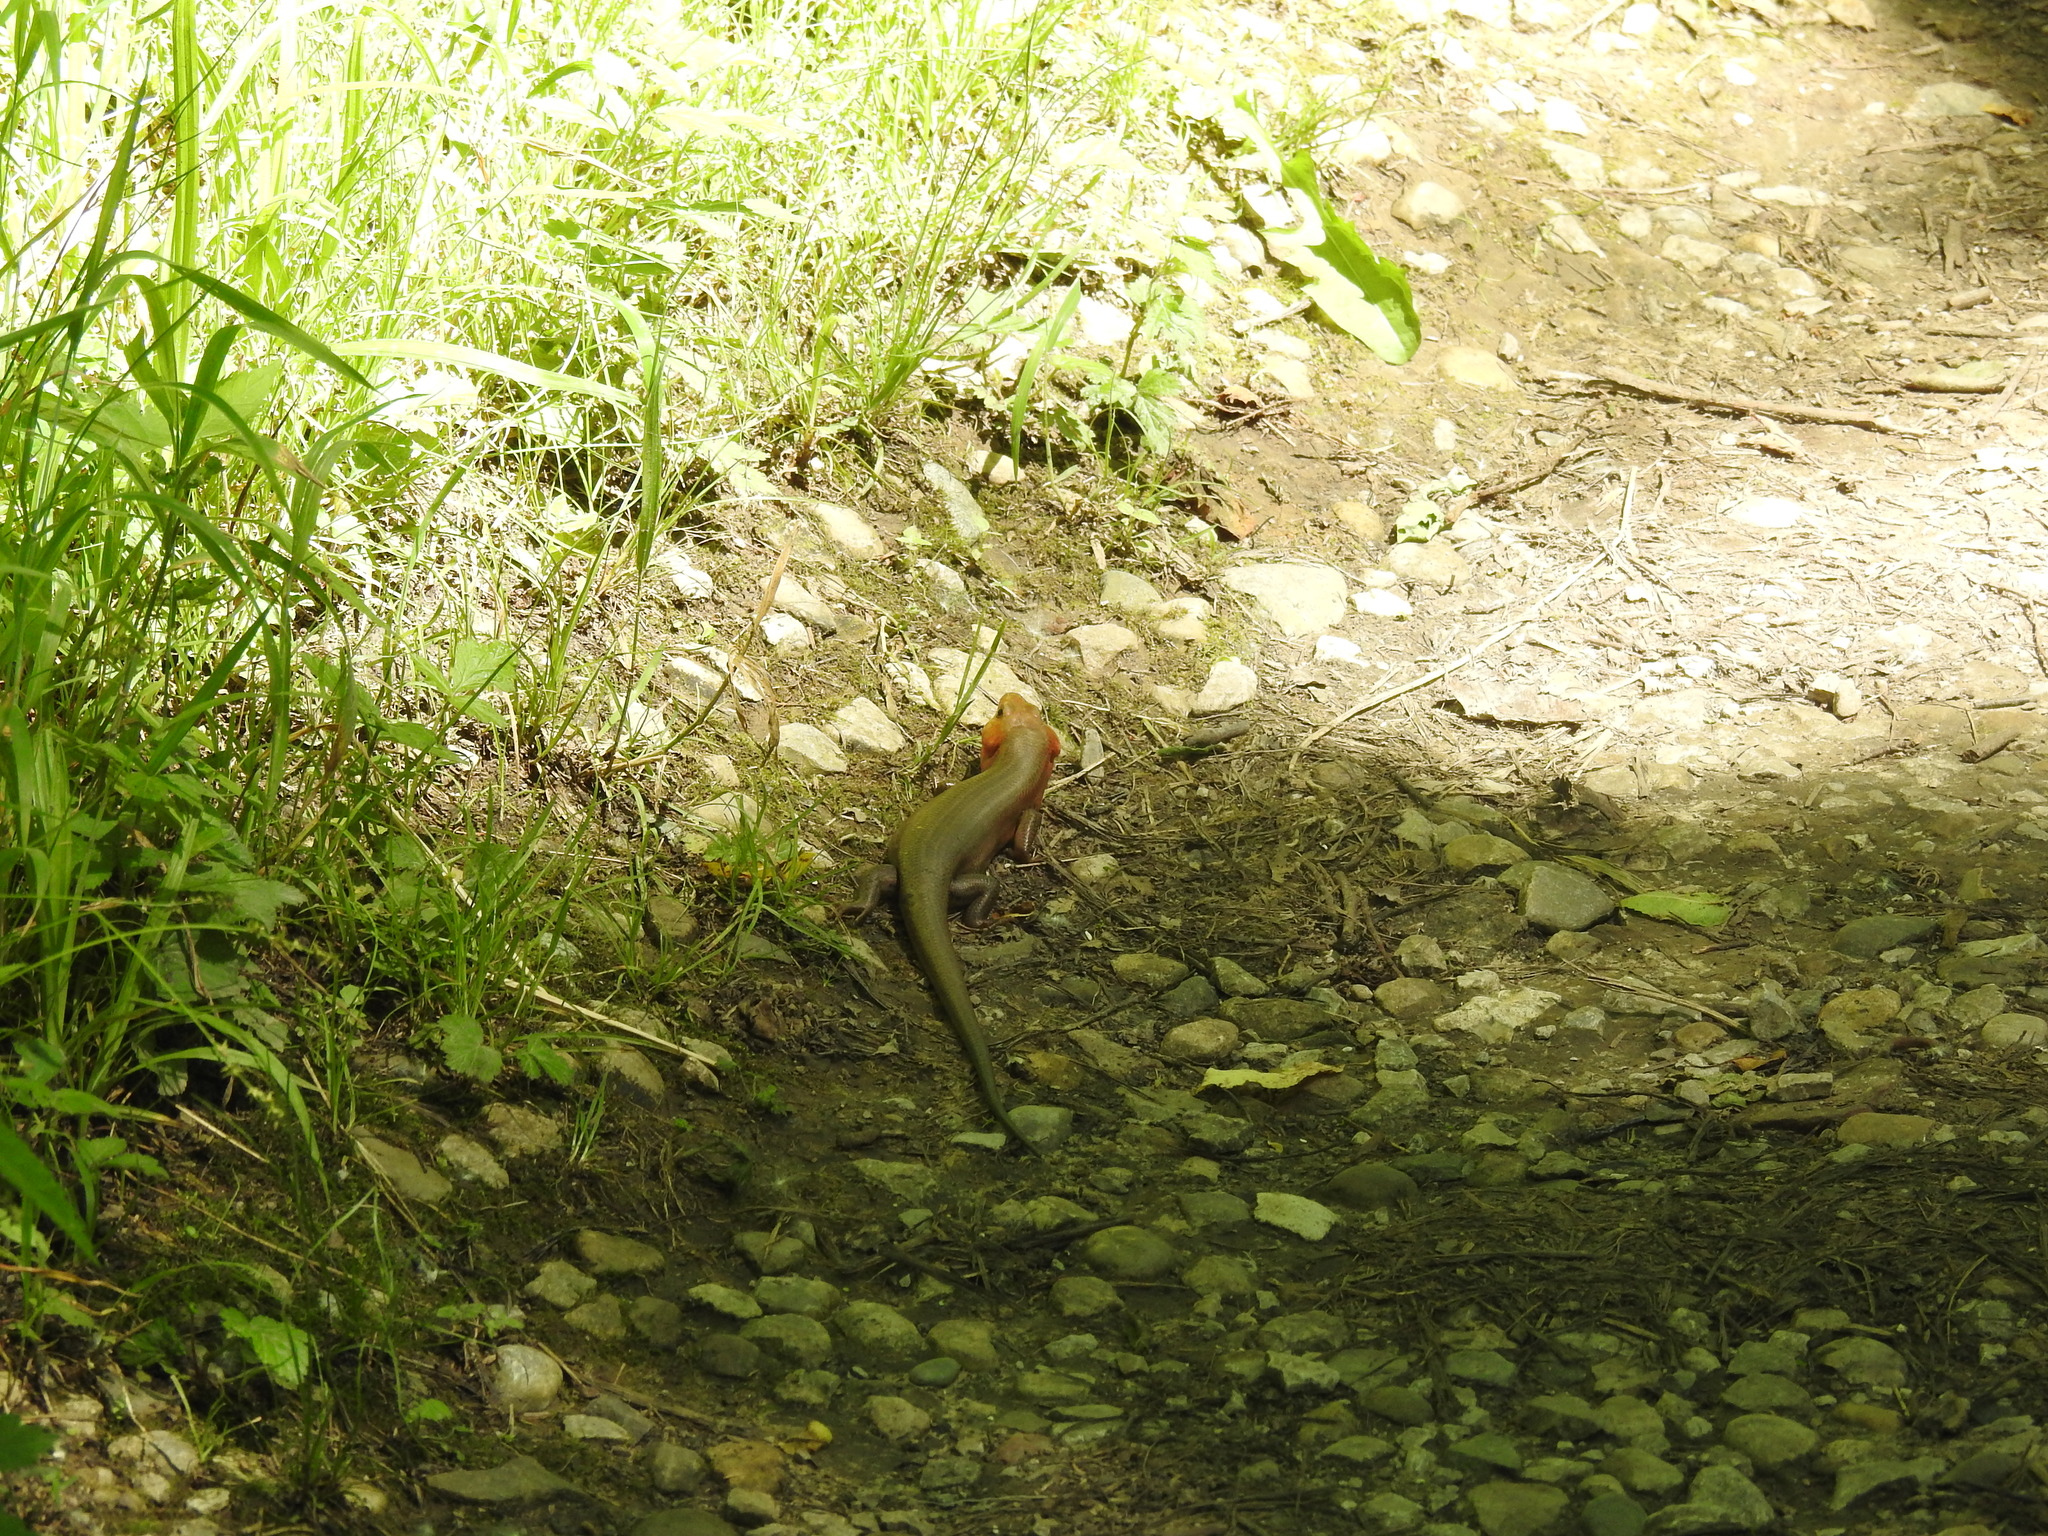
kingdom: Animalia
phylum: Chordata
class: Squamata
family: Scincidae
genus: Plestiodon
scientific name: Plestiodon laticeps
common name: Broadhead skink
